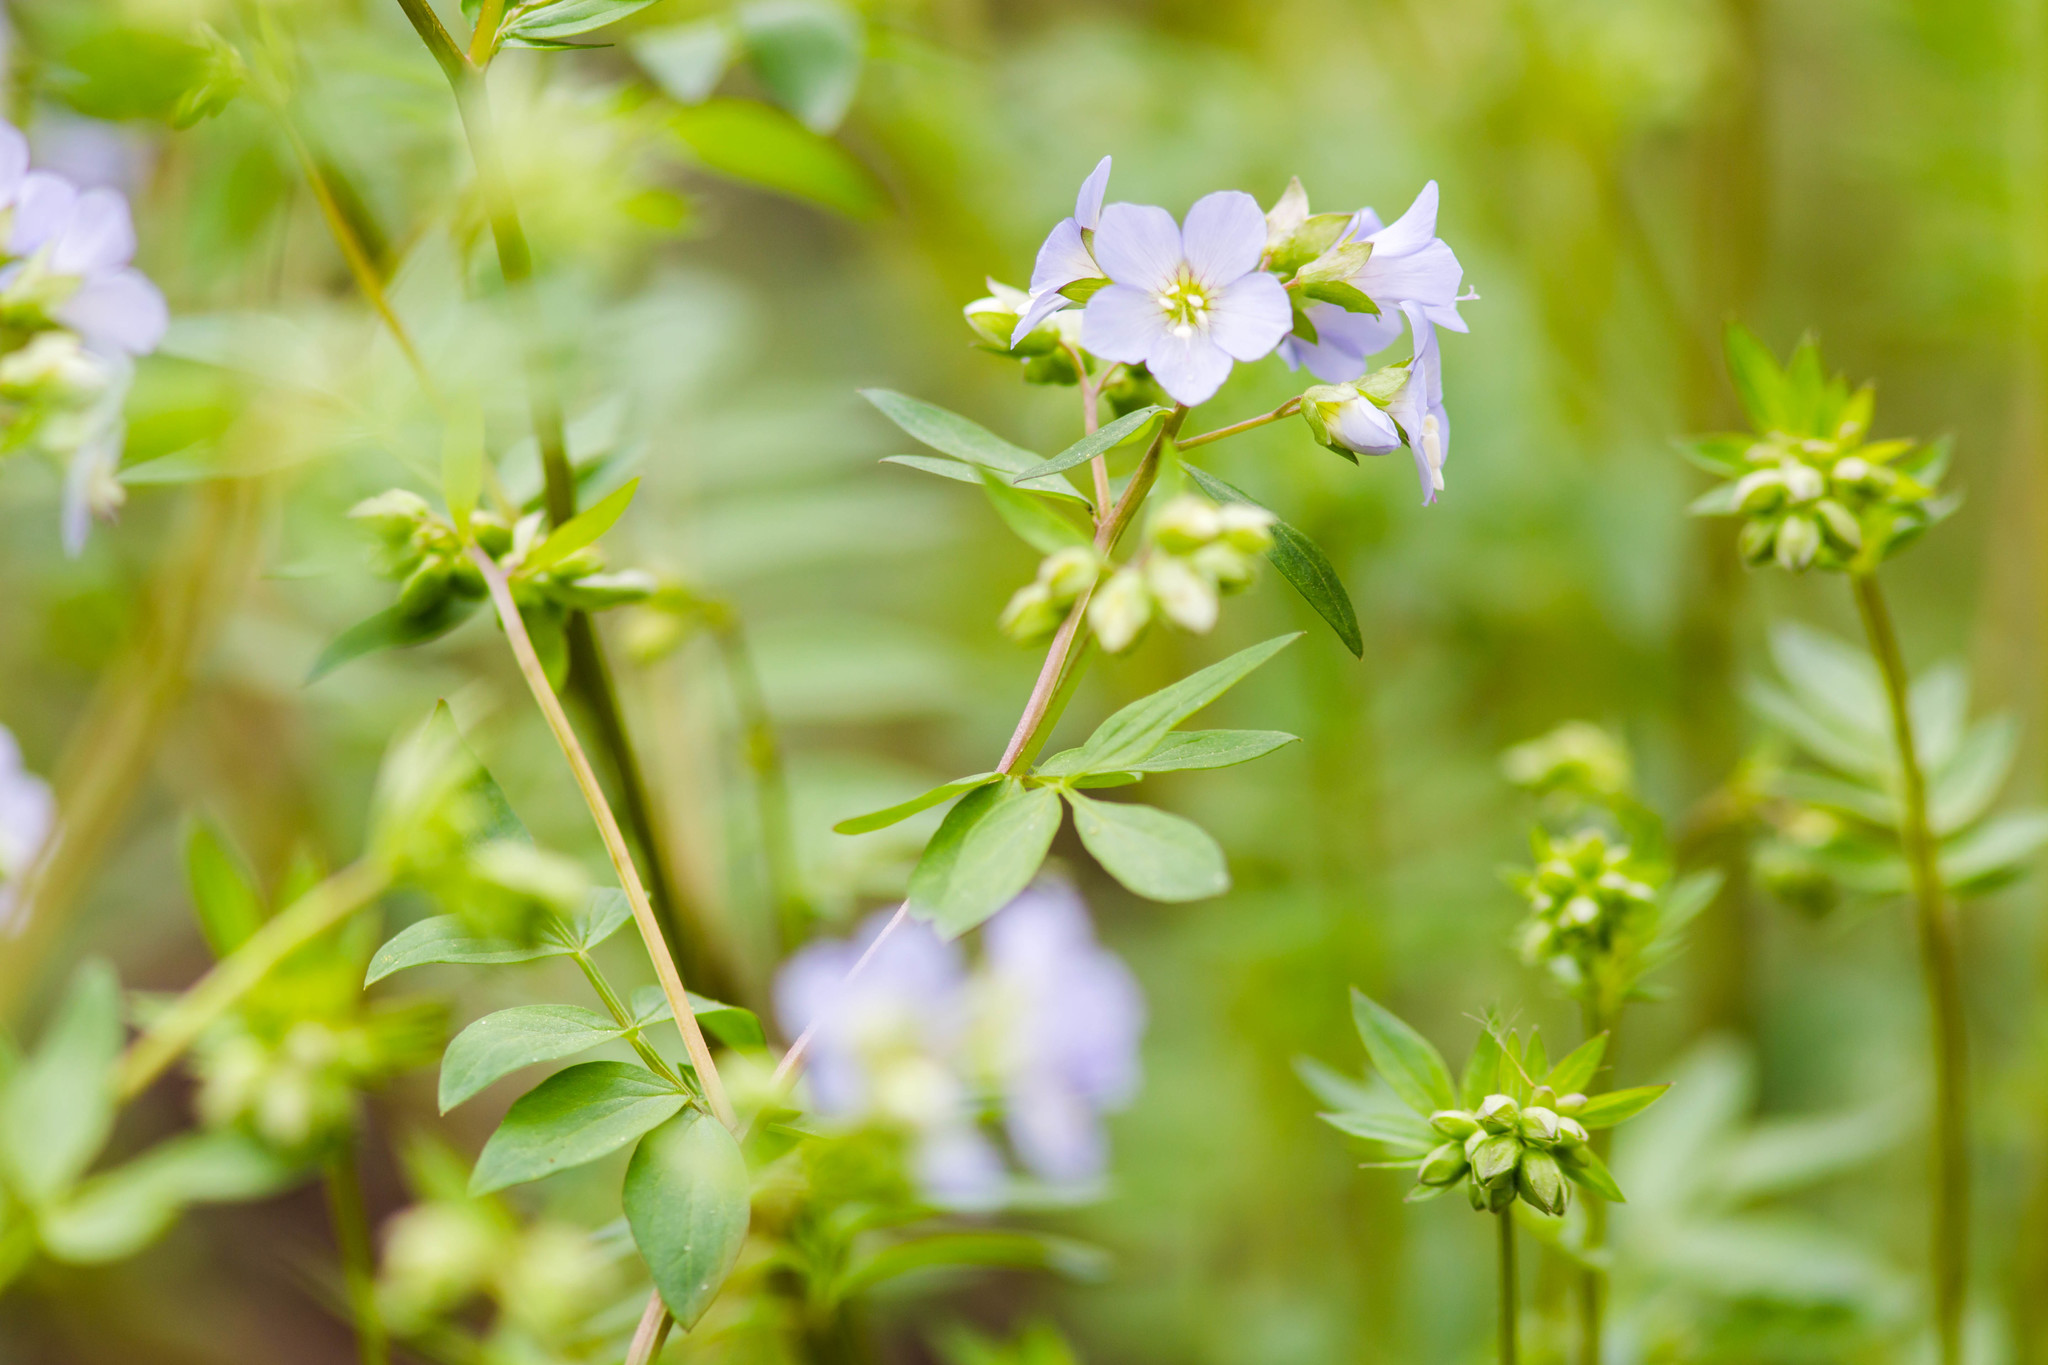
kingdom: Plantae
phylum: Tracheophyta
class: Magnoliopsida
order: Ericales
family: Polemoniaceae
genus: Polemonium
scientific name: Polemonium reptans
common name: Creeping jacob's-ladder
